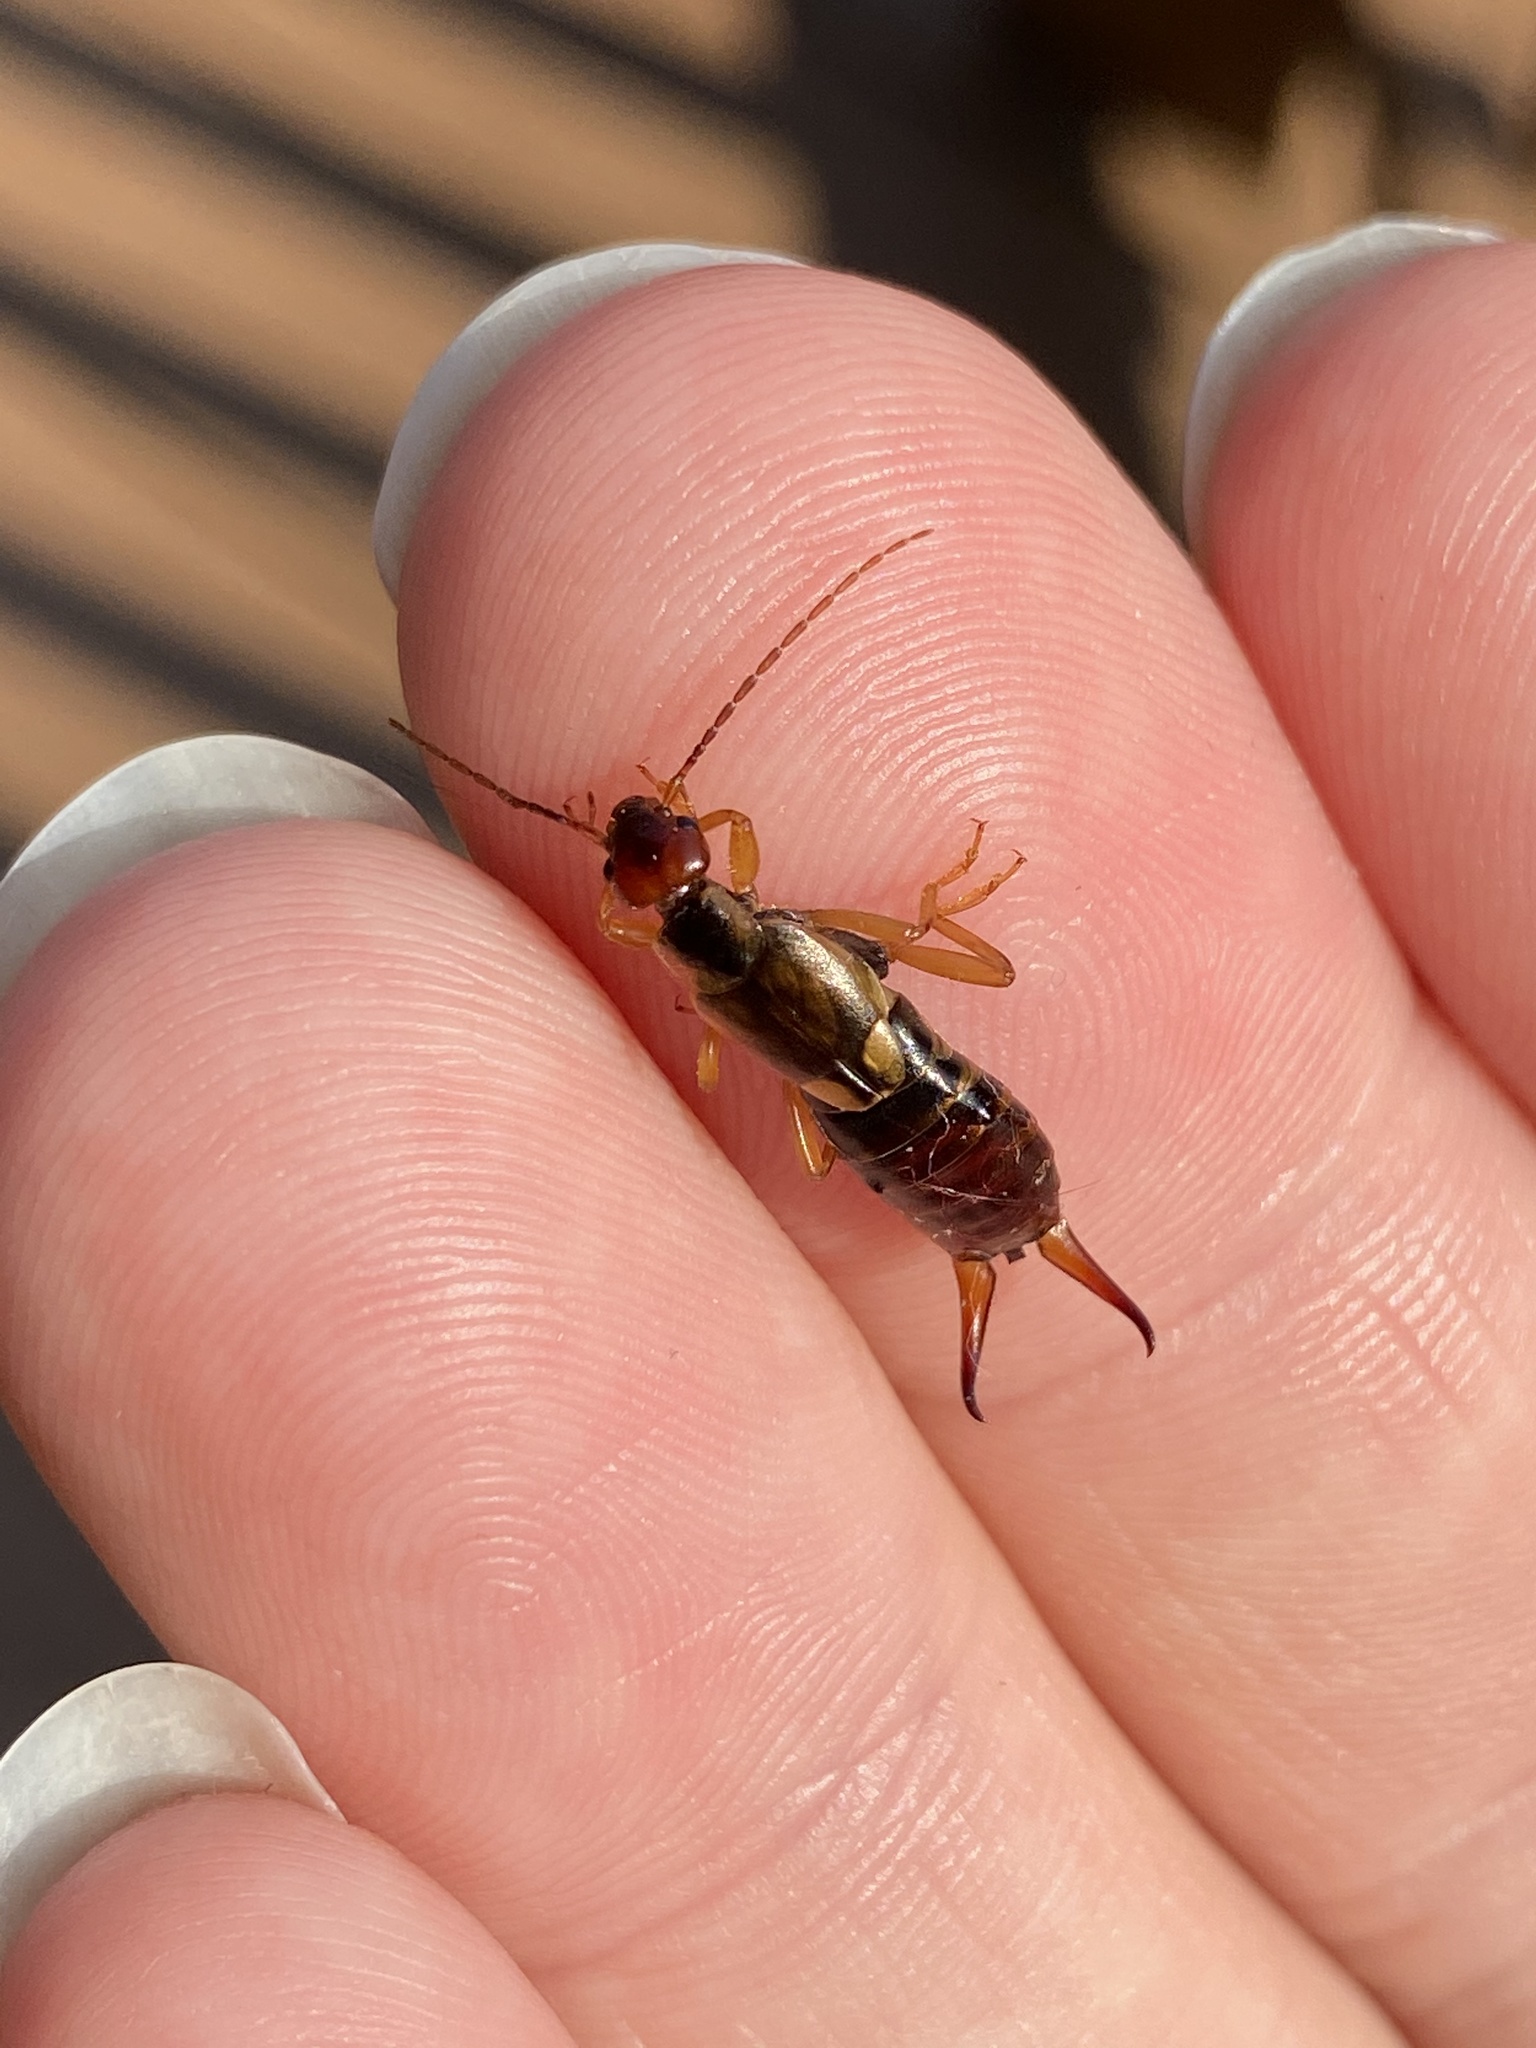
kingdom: Animalia
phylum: Arthropoda
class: Insecta
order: Dermaptera
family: Forficulidae
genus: Forficula
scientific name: Forficula
